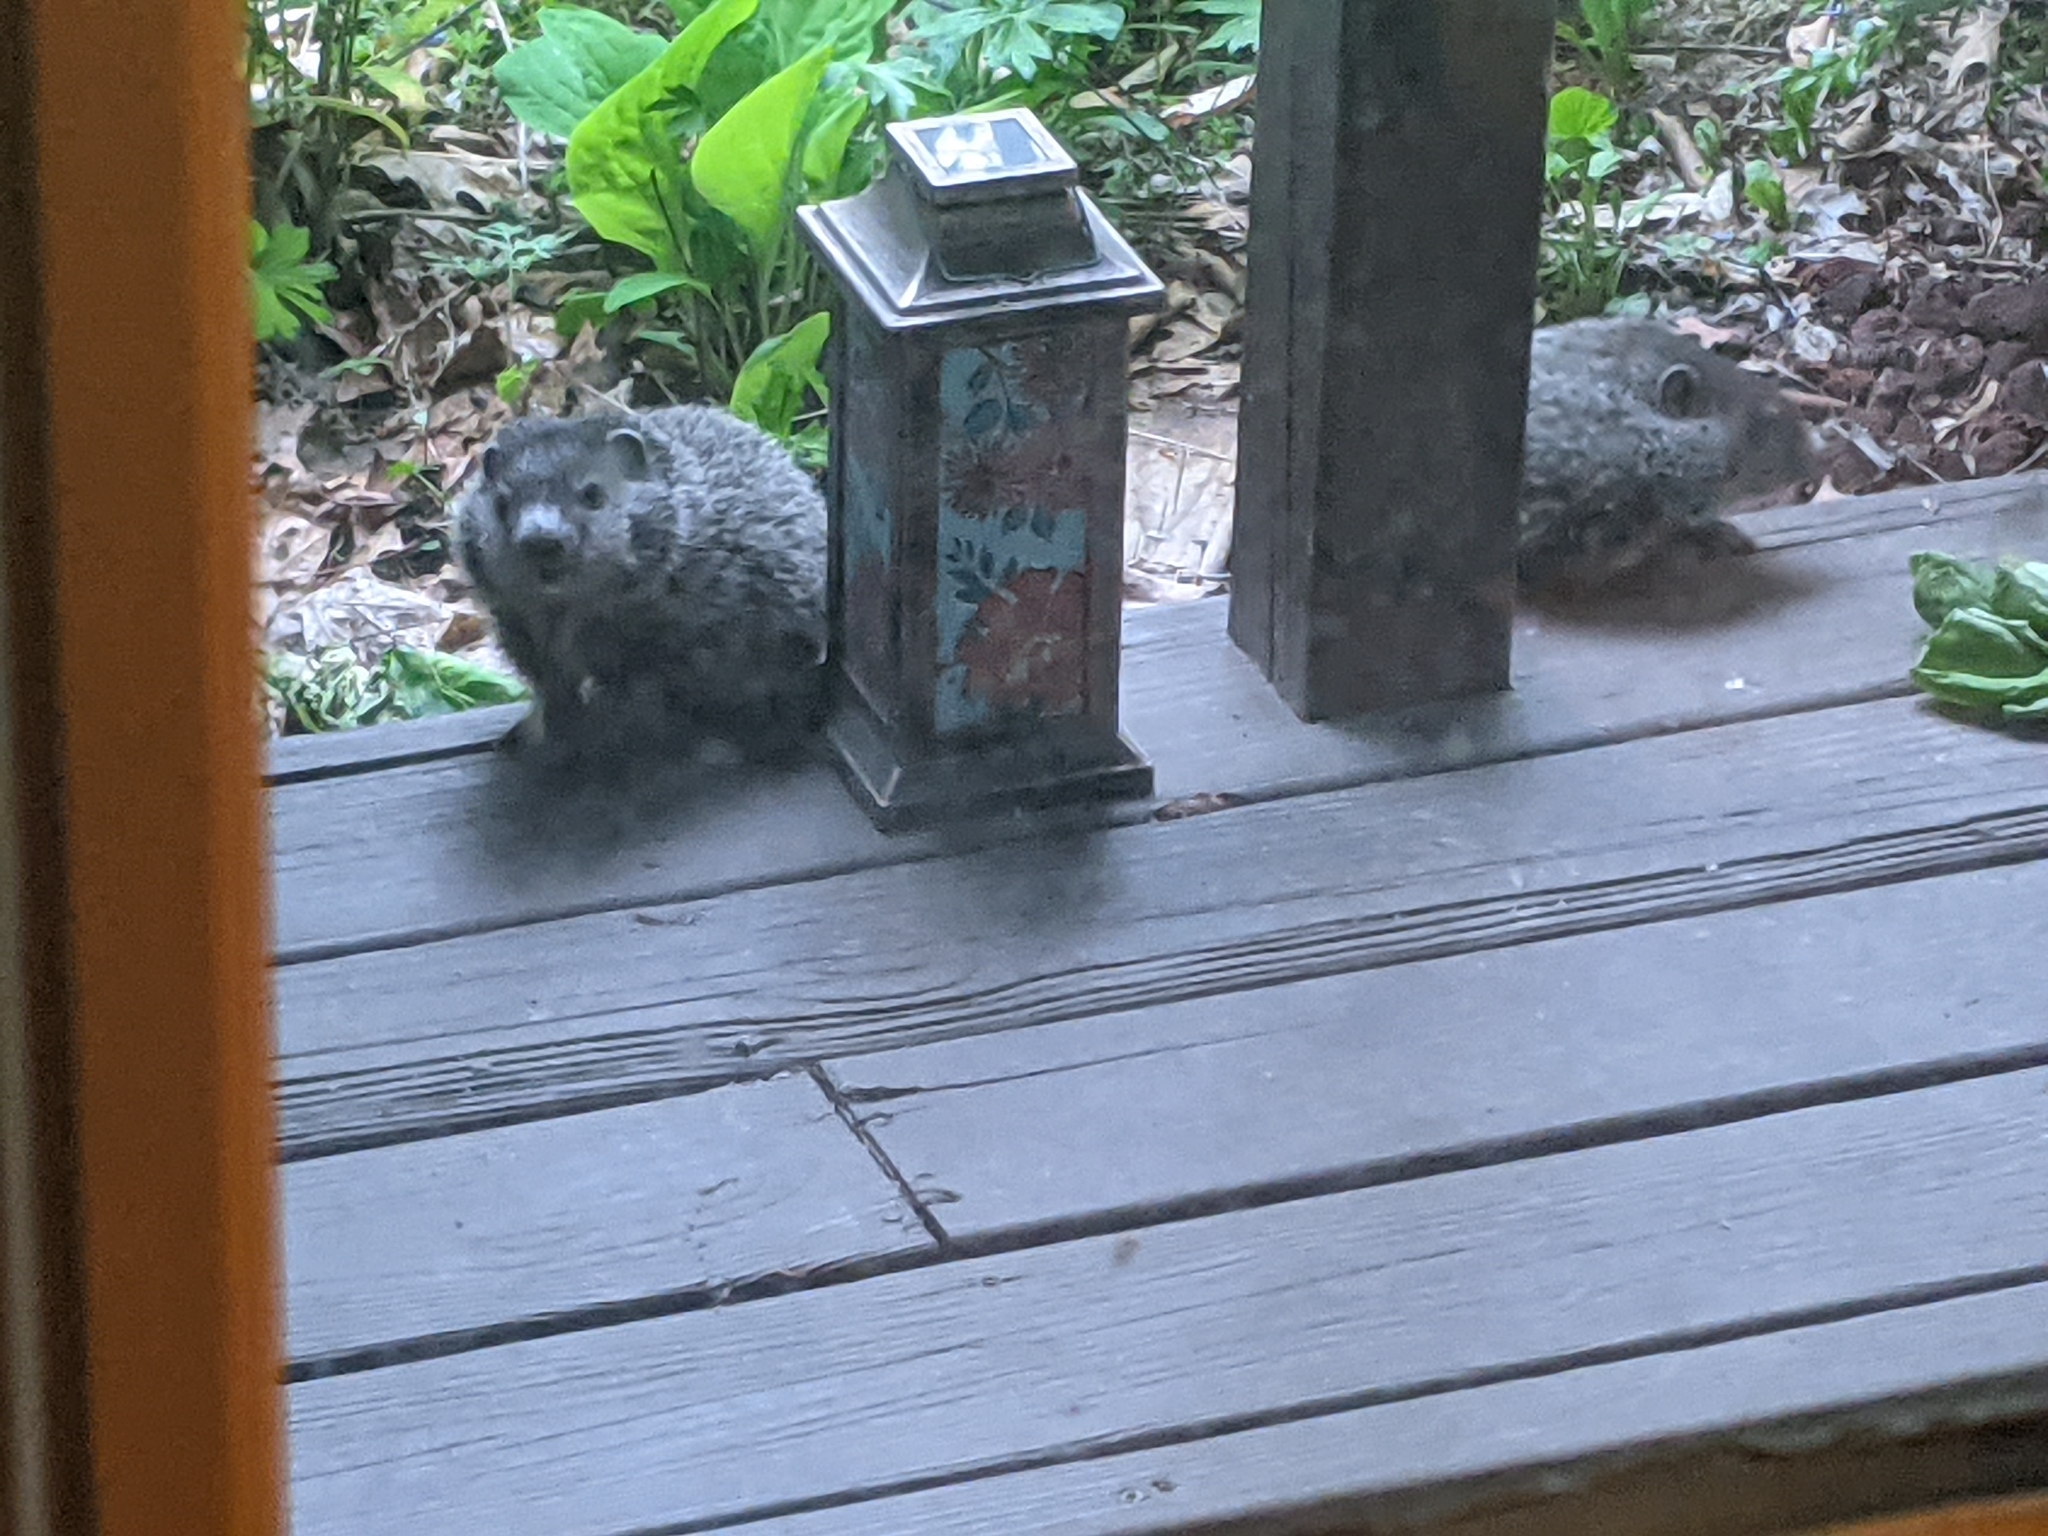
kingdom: Animalia
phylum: Chordata
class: Mammalia
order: Rodentia
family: Sciuridae
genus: Marmota
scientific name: Marmota monax
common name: Groundhog
